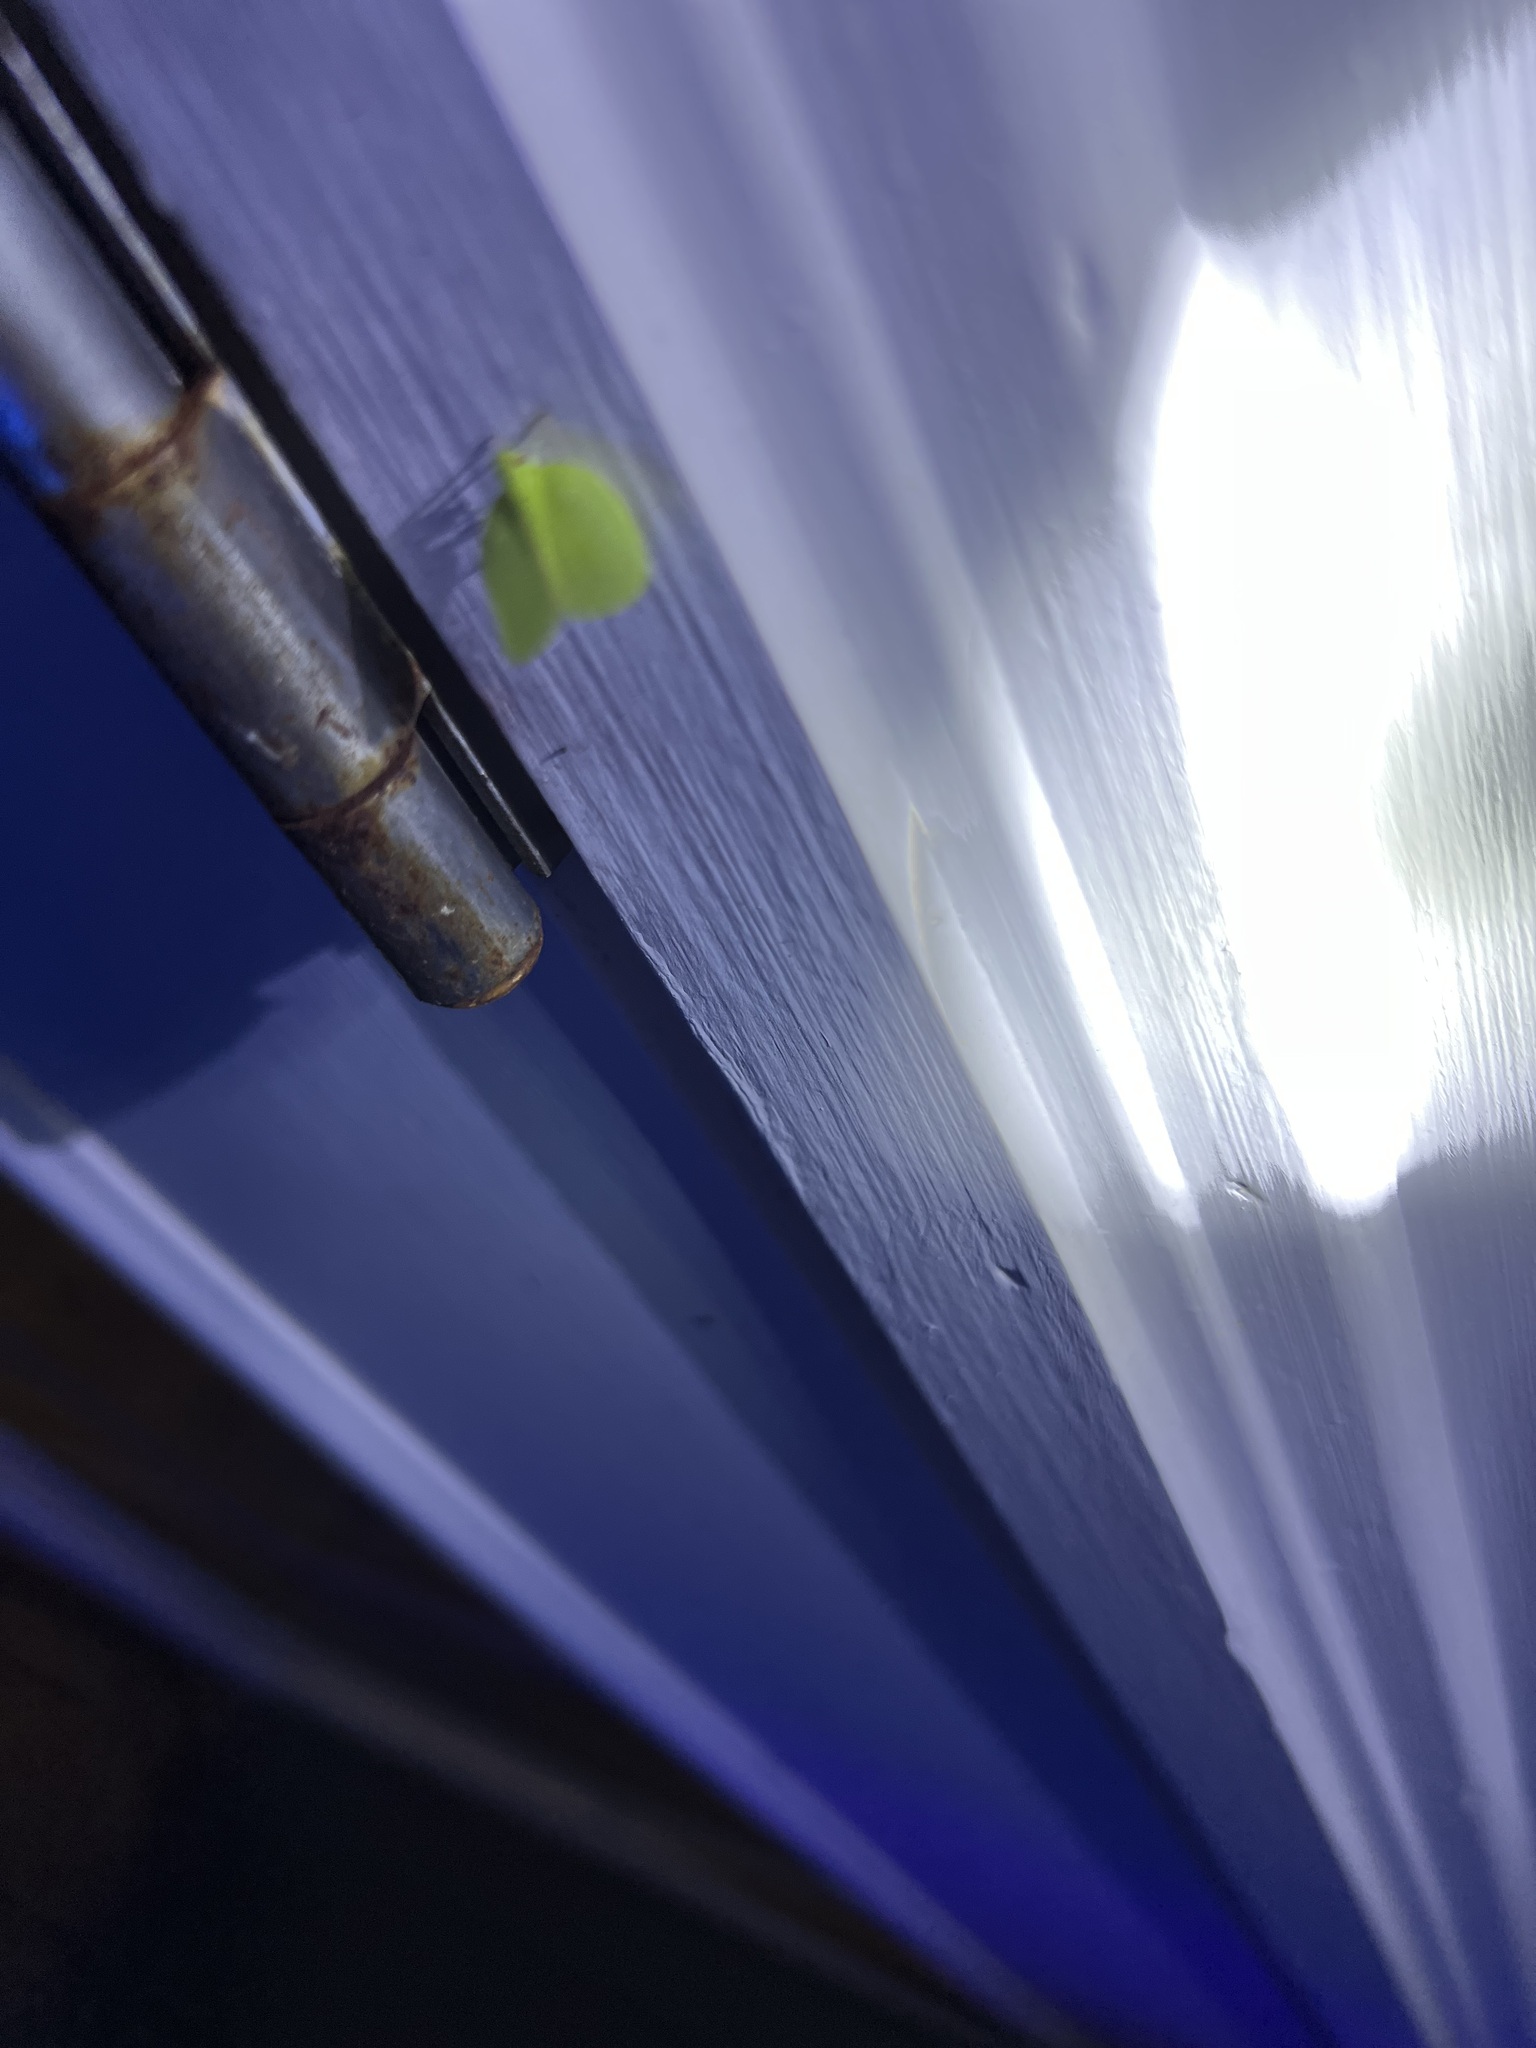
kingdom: Animalia
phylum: Arthropoda
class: Insecta
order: Hemiptera
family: Acanaloniidae
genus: Acanalonia
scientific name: Acanalonia conica
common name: Green cone-headed planthopper
